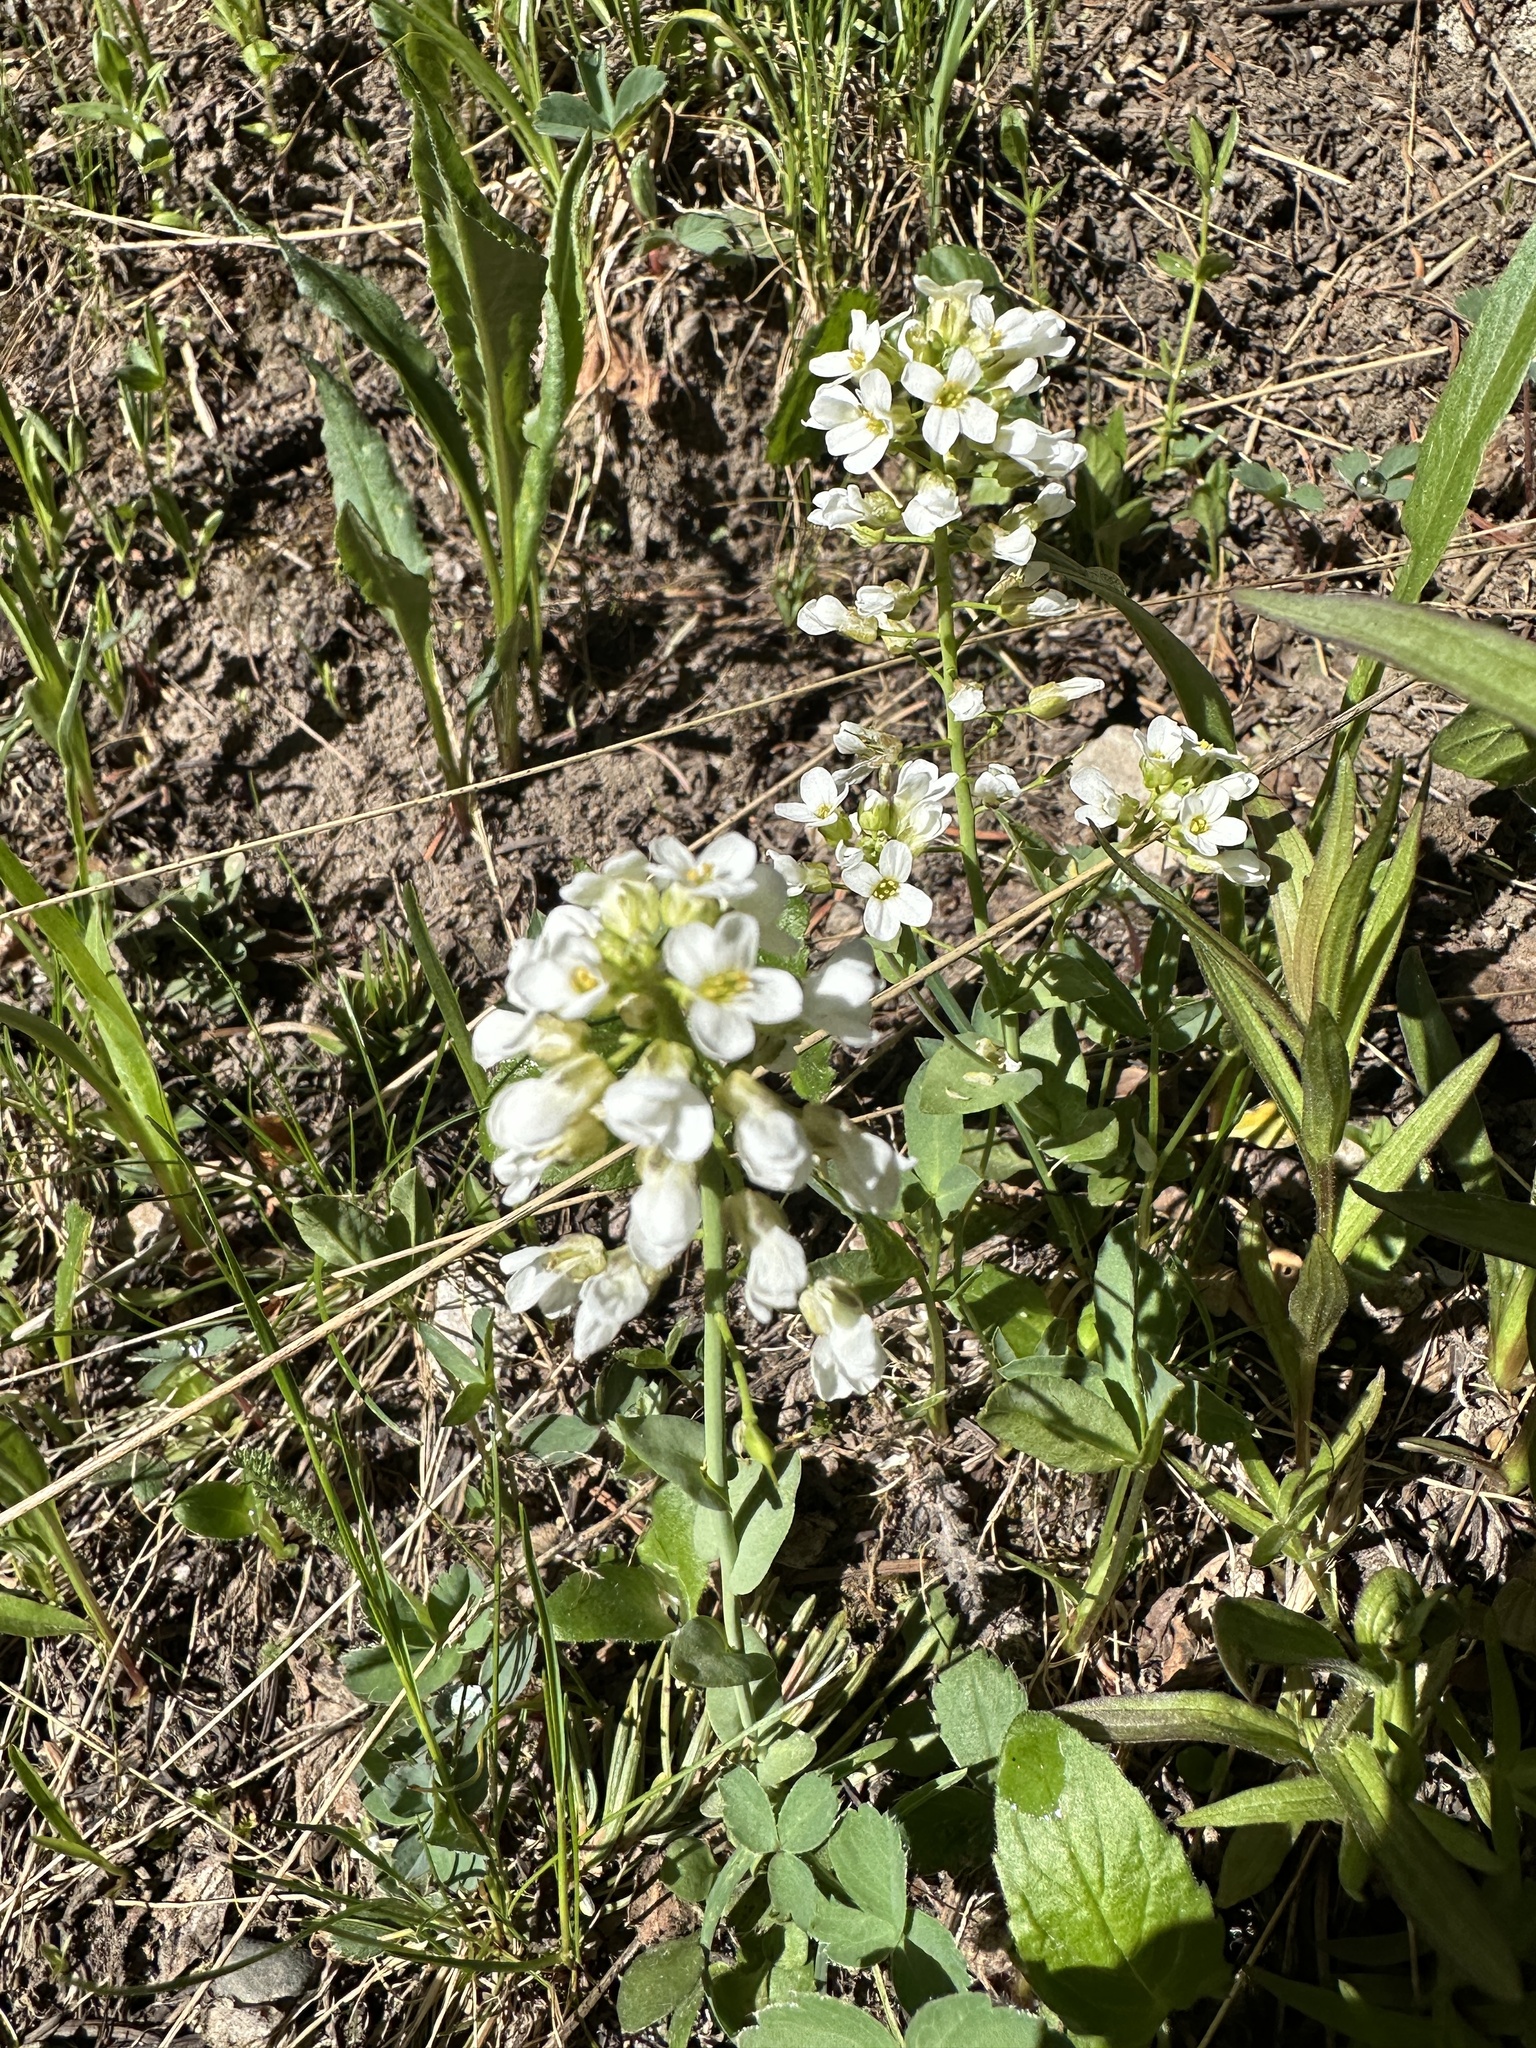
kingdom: Plantae
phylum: Tracheophyta
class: Magnoliopsida
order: Brassicales
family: Brassicaceae
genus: Noccaea
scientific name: Noccaea fendleri
